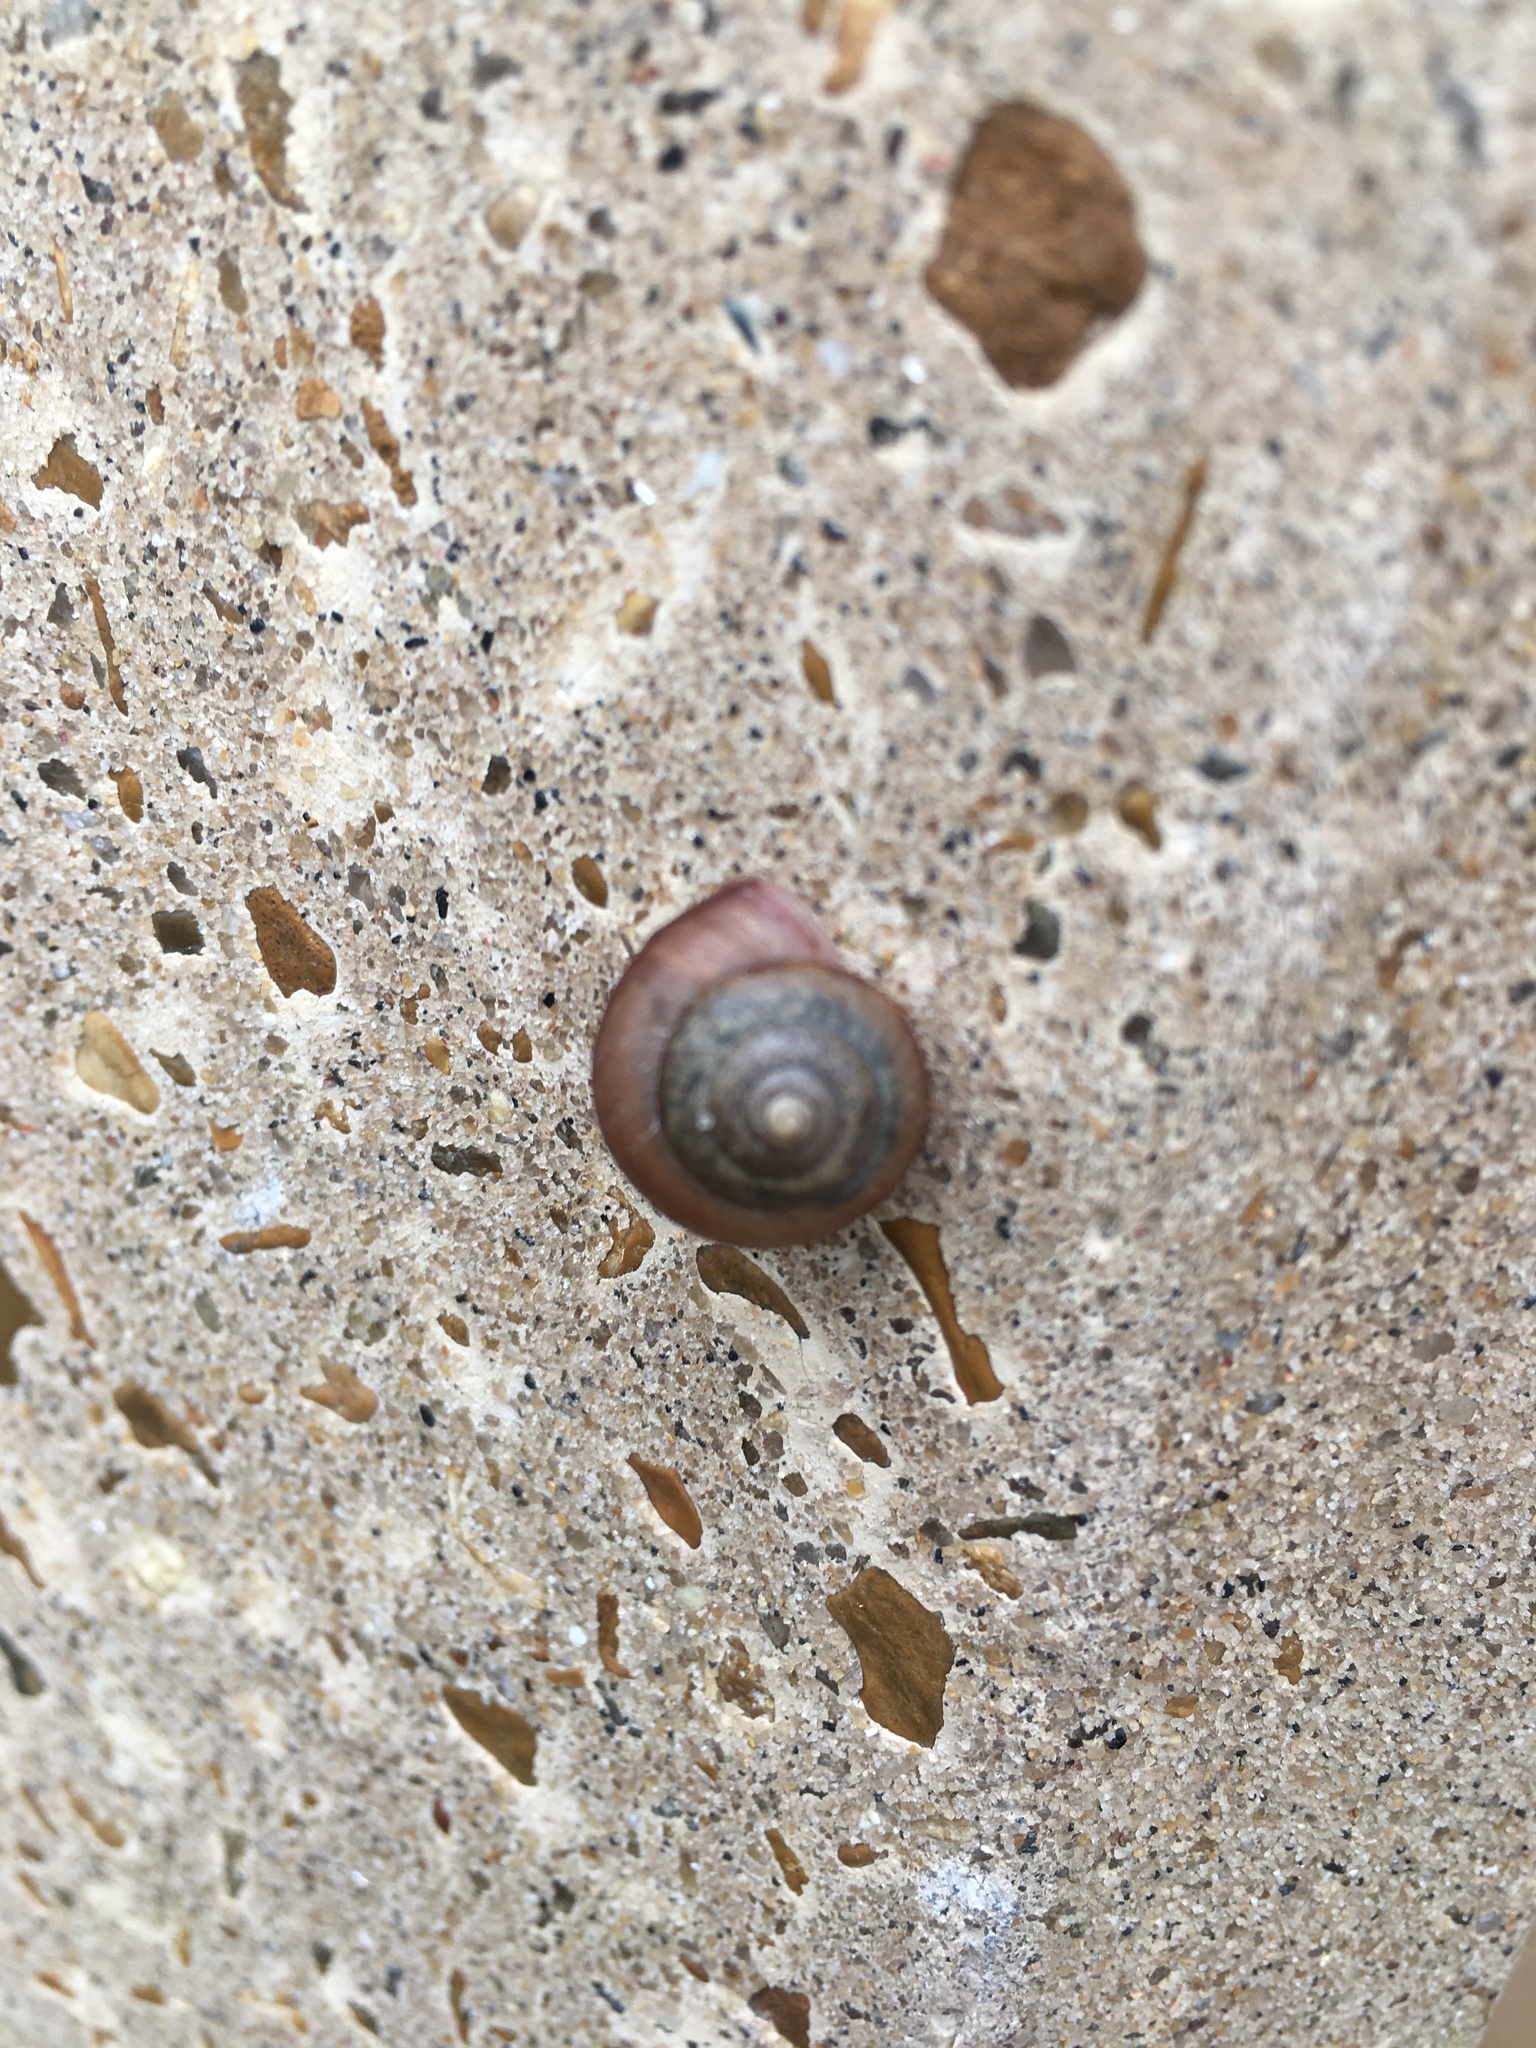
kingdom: Animalia
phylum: Mollusca
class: Gastropoda
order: Stylommatophora
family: Camaenidae
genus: Bradybaena
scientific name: Bradybaena similaris
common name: Asian trampsnail
